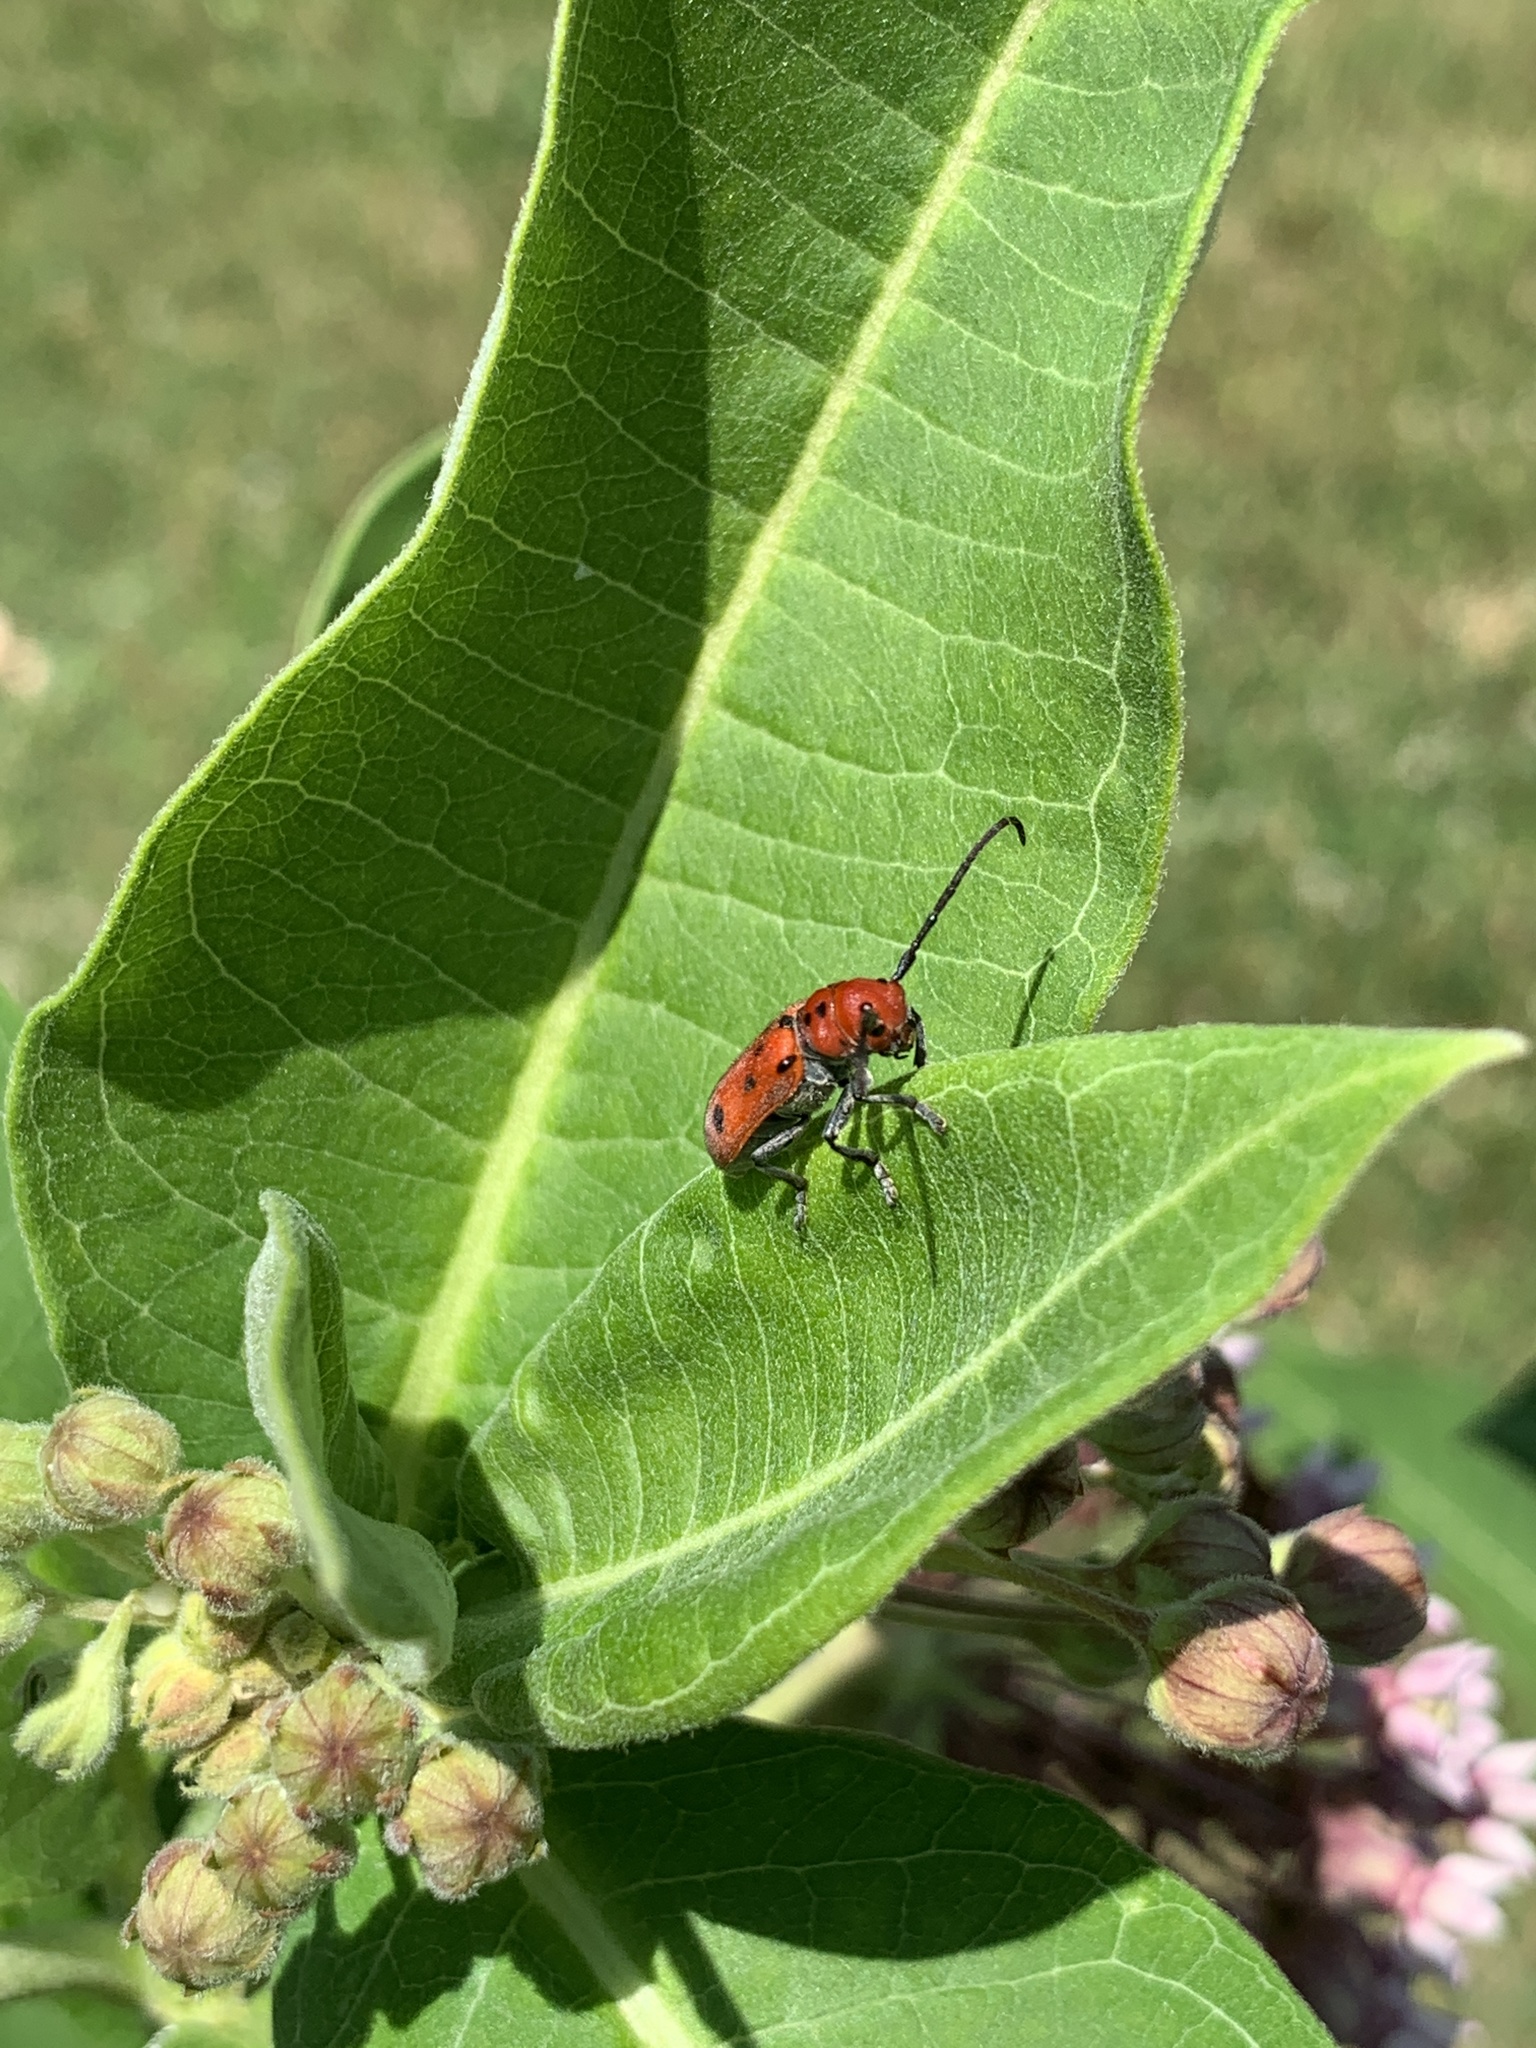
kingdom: Animalia
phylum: Arthropoda
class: Insecta
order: Coleoptera
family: Cerambycidae
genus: Tetraopes
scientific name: Tetraopes tetrophthalmus
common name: Red milkweed beetle
